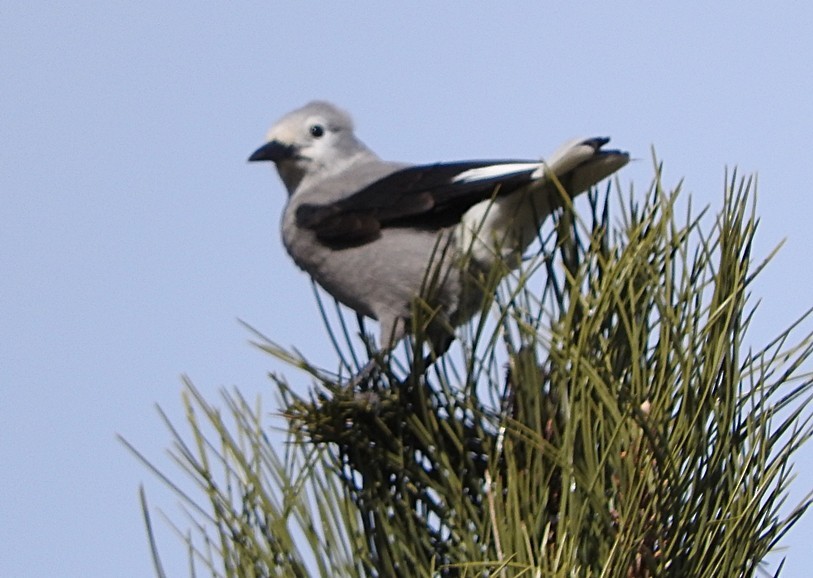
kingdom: Animalia
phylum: Chordata
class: Aves
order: Passeriformes
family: Corvidae
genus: Nucifraga
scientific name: Nucifraga columbiana
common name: Clark's nutcracker
